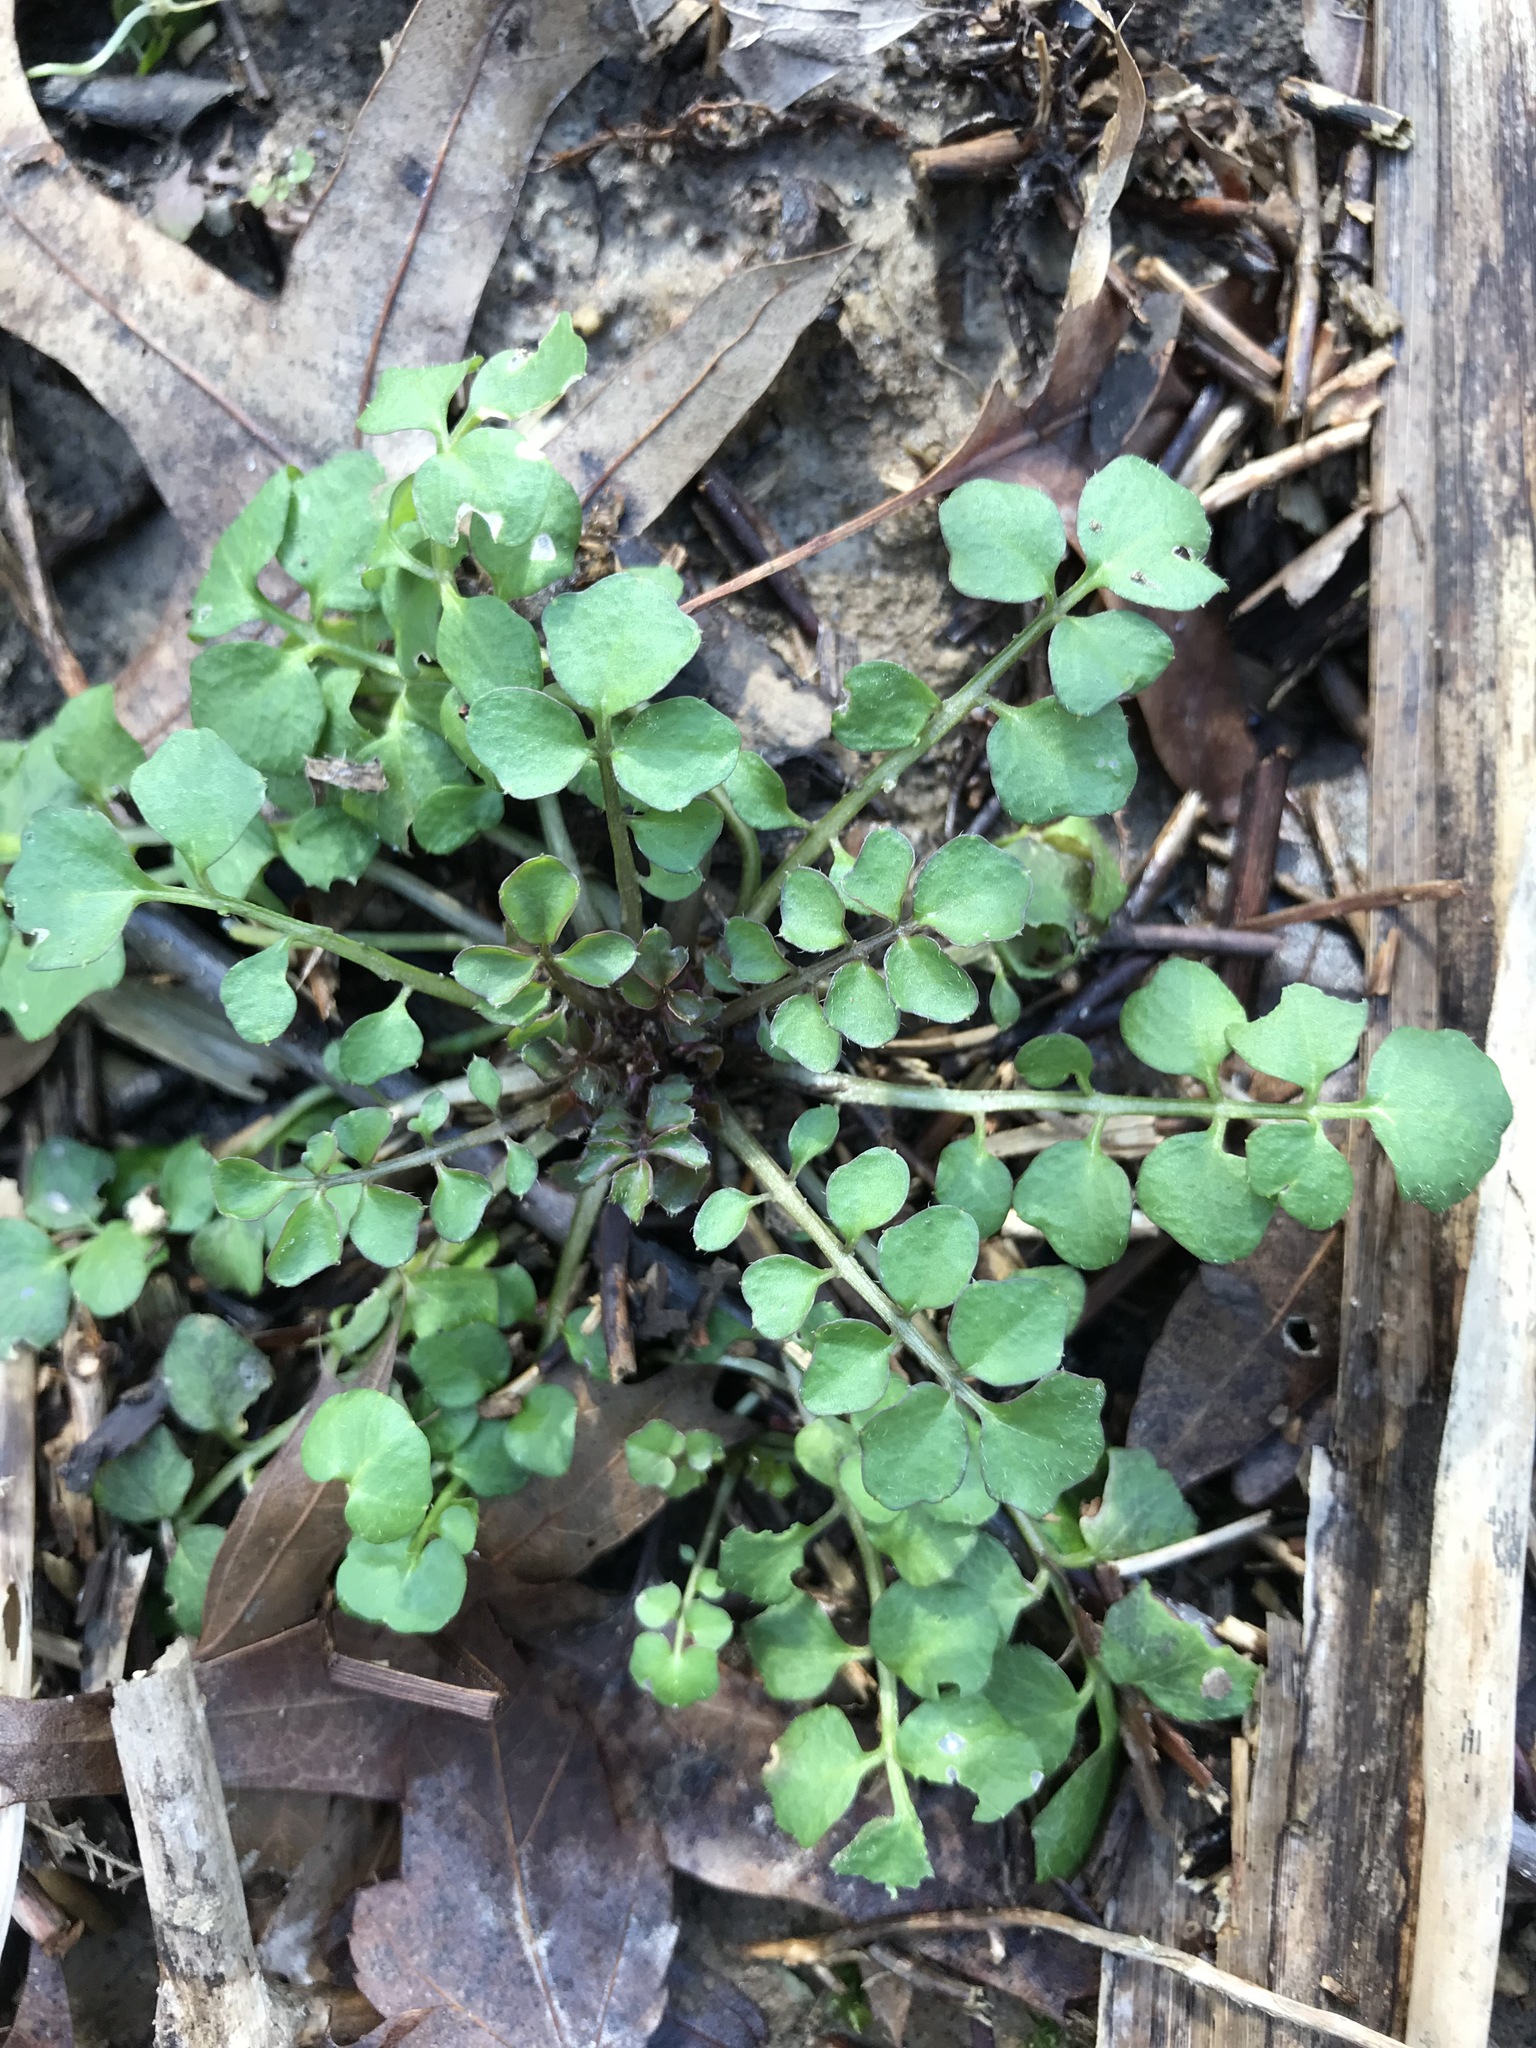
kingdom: Plantae
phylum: Tracheophyta
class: Magnoliopsida
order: Brassicales
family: Brassicaceae
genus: Cardamine
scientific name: Cardamine hirsuta
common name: Hairy bittercress
